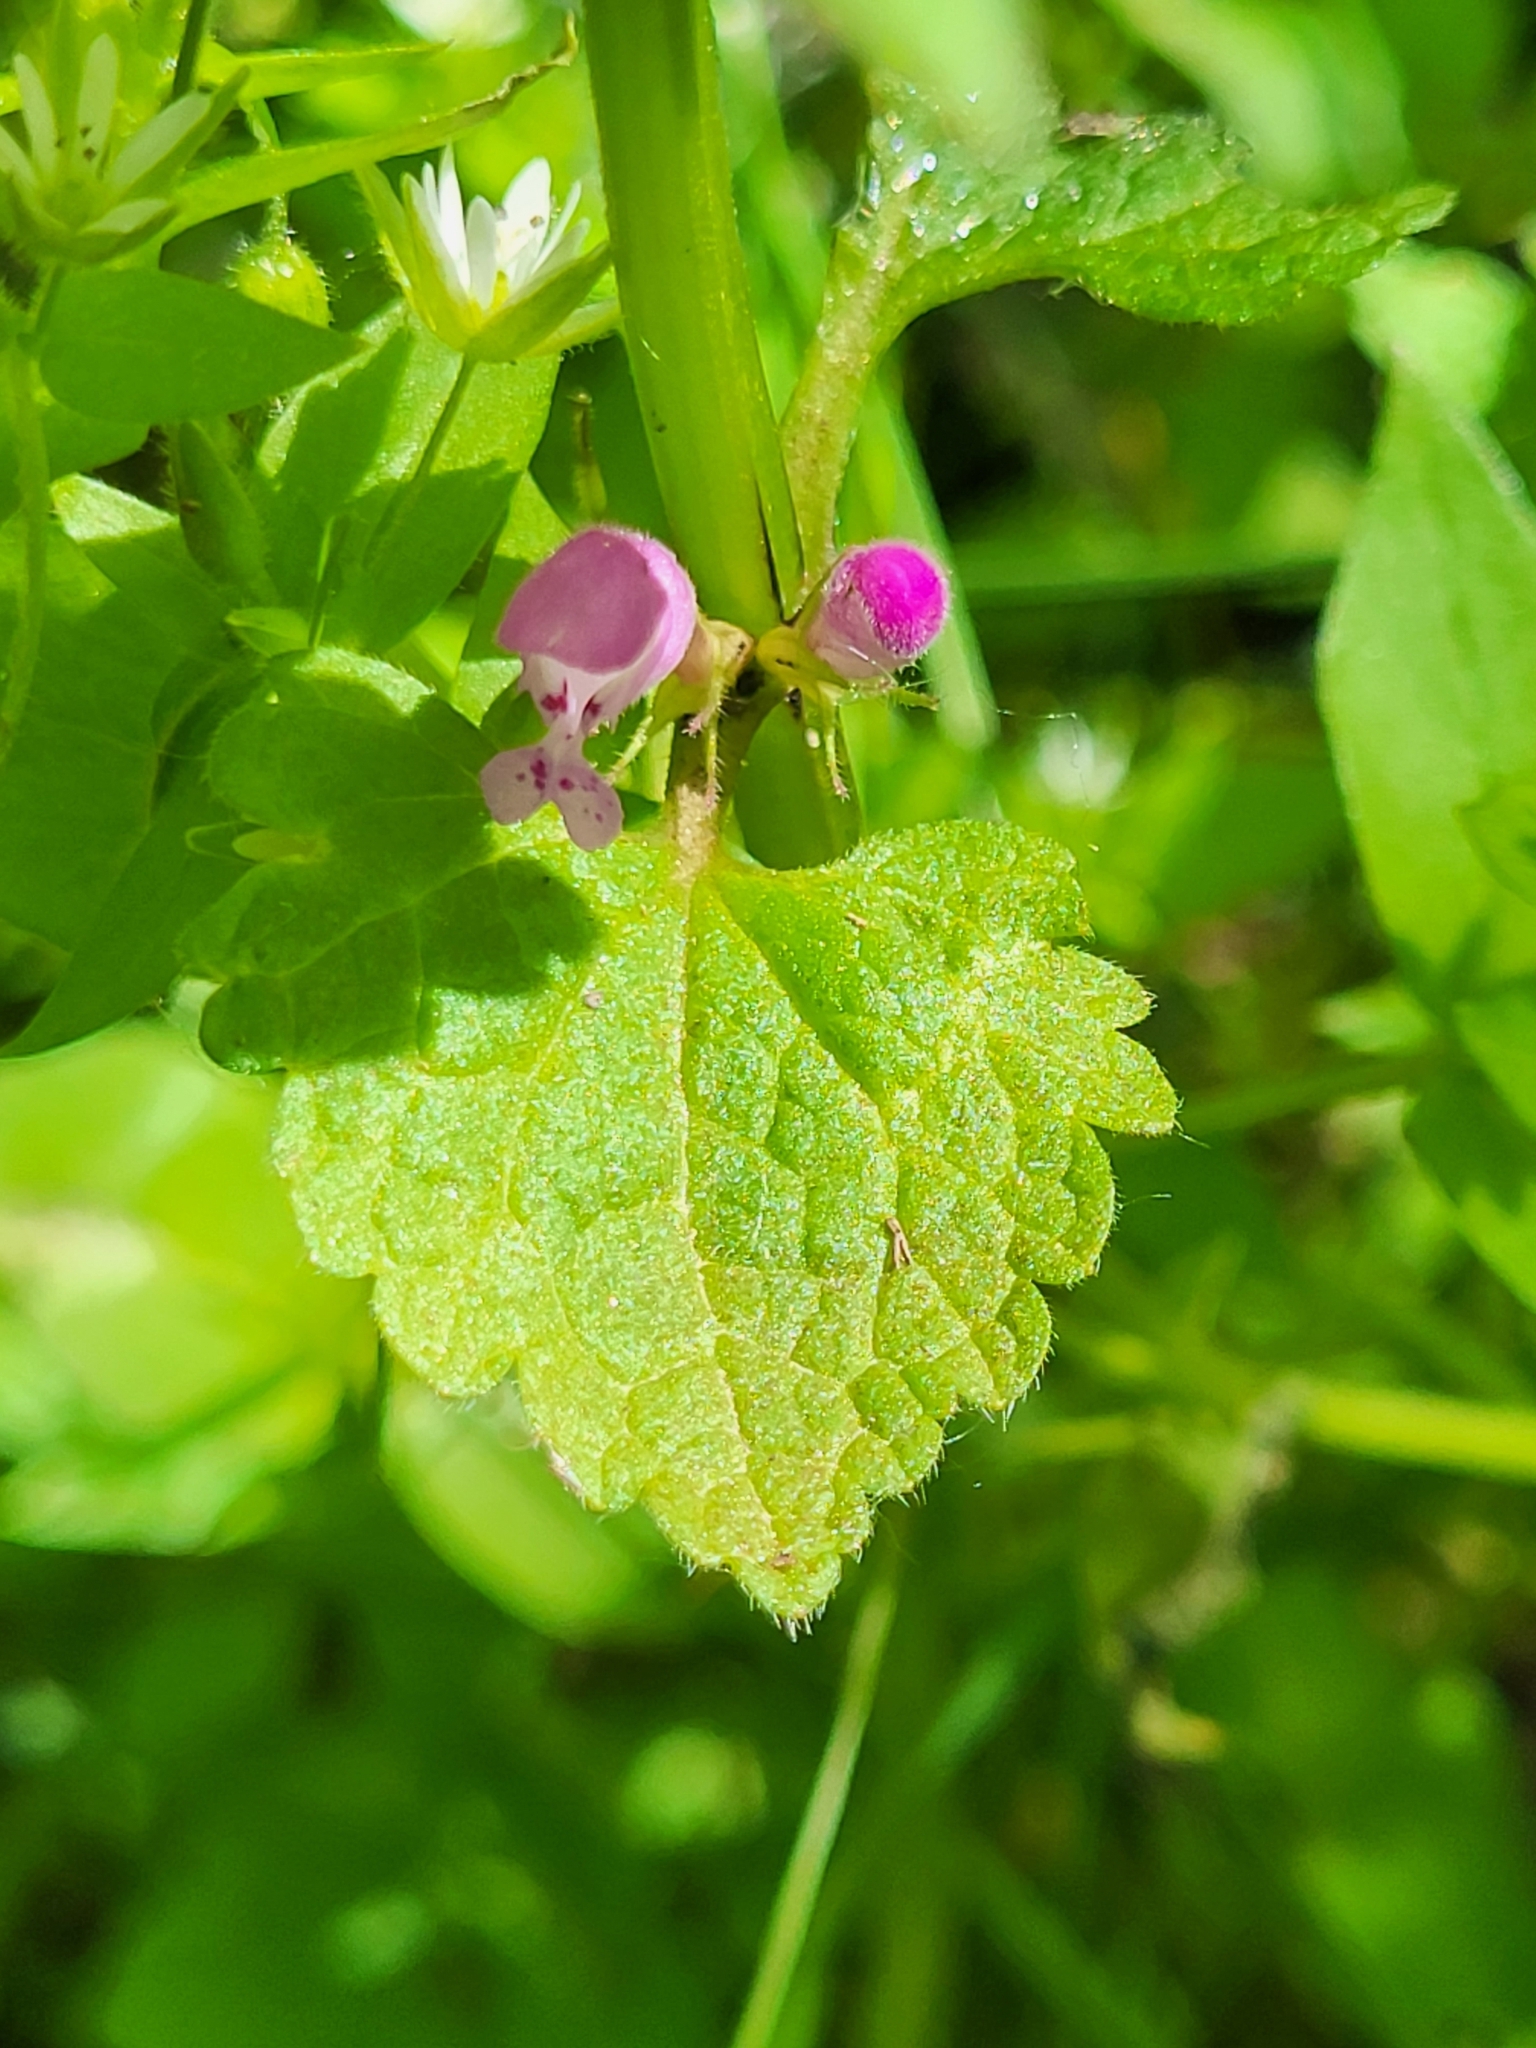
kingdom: Plantae
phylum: Tracheophyta
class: Magnoliopsida
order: Lamiales
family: Lamiaceae
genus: Lamium
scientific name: Lamium purpureum
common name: Red dead-nettle
